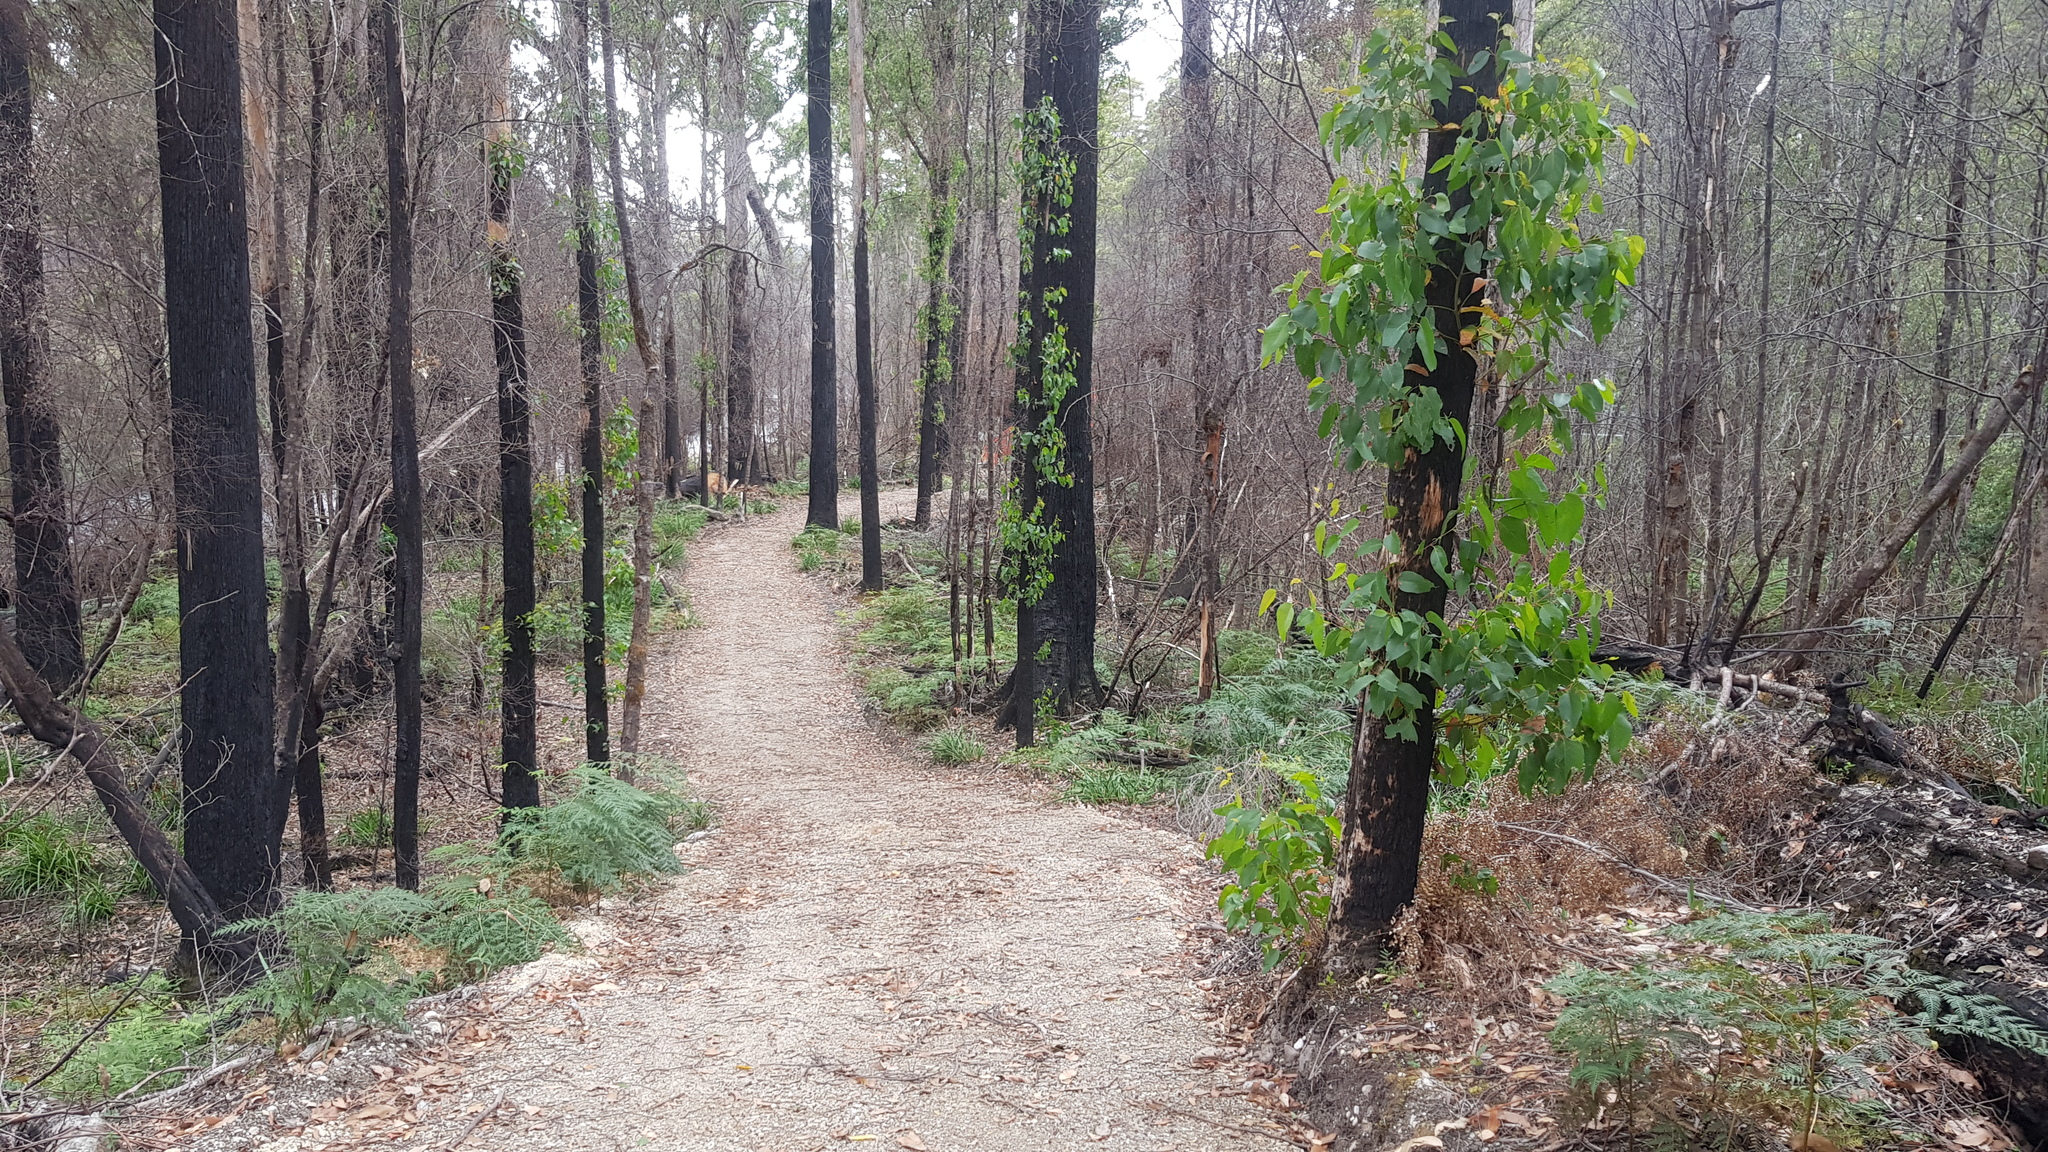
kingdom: Plantae
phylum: Tracheophyta
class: Magnoliopsida
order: Myrtales
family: Myrtaceae
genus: Eucalyptus
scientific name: Eucalyptus obliqua
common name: Messmate stringybark
